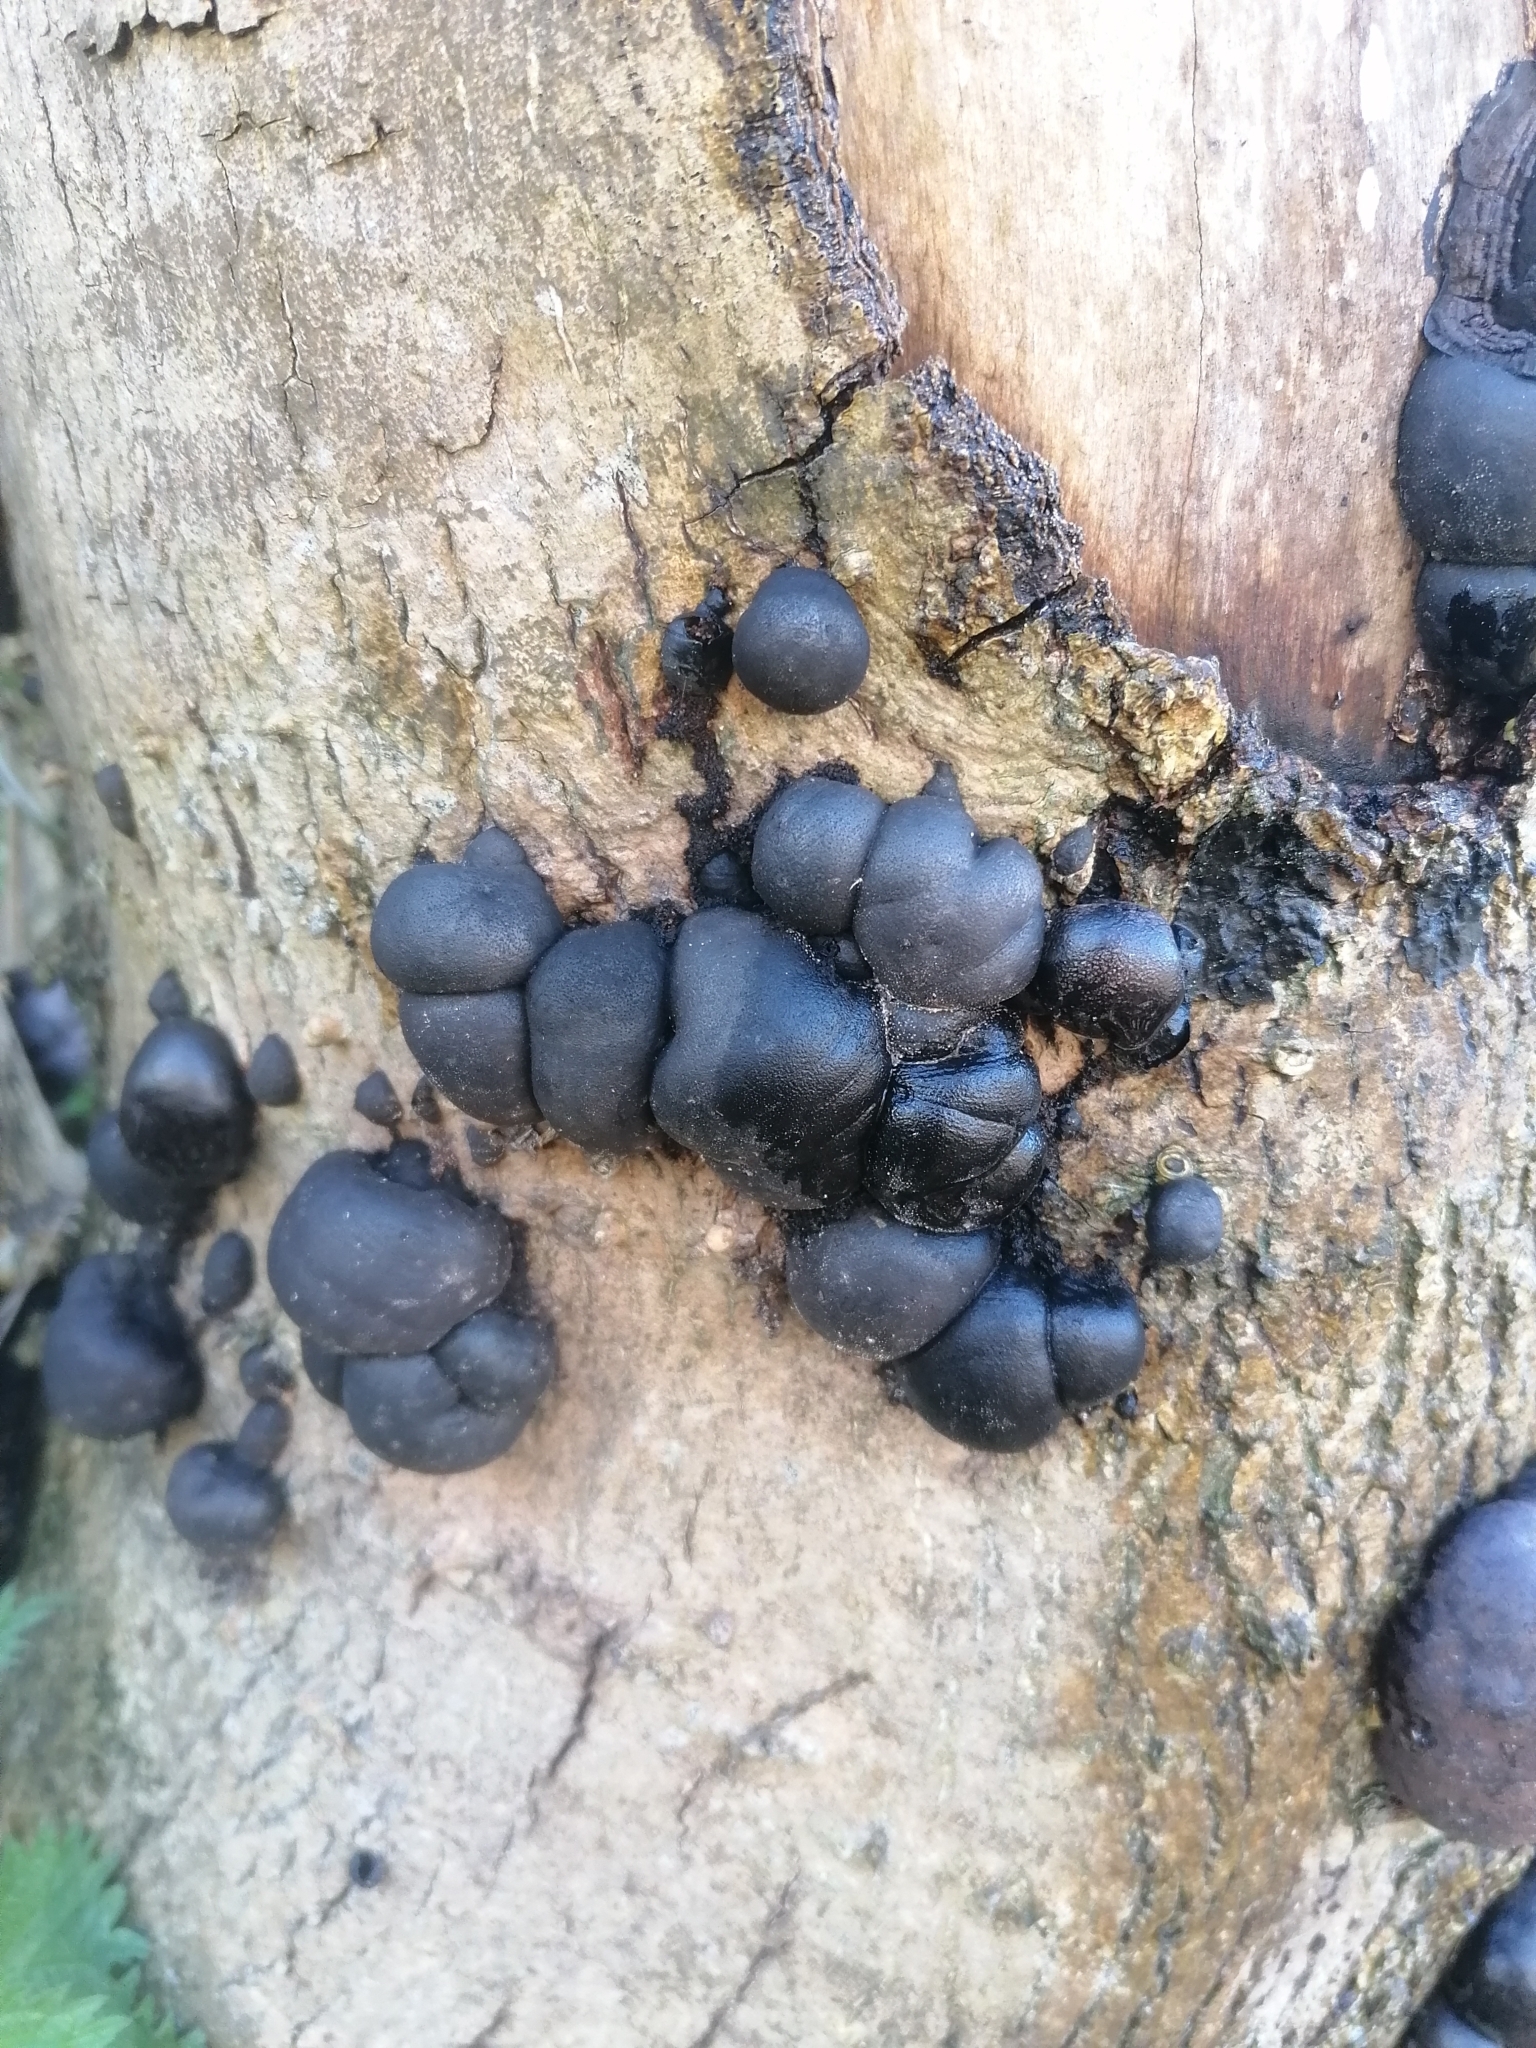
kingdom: Fungi
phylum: Ascomycota
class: Sordariomycetes
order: Xylariales
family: Hypoxylaceae
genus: Daldinia
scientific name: Daldinia concentrica
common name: Cramp balls
